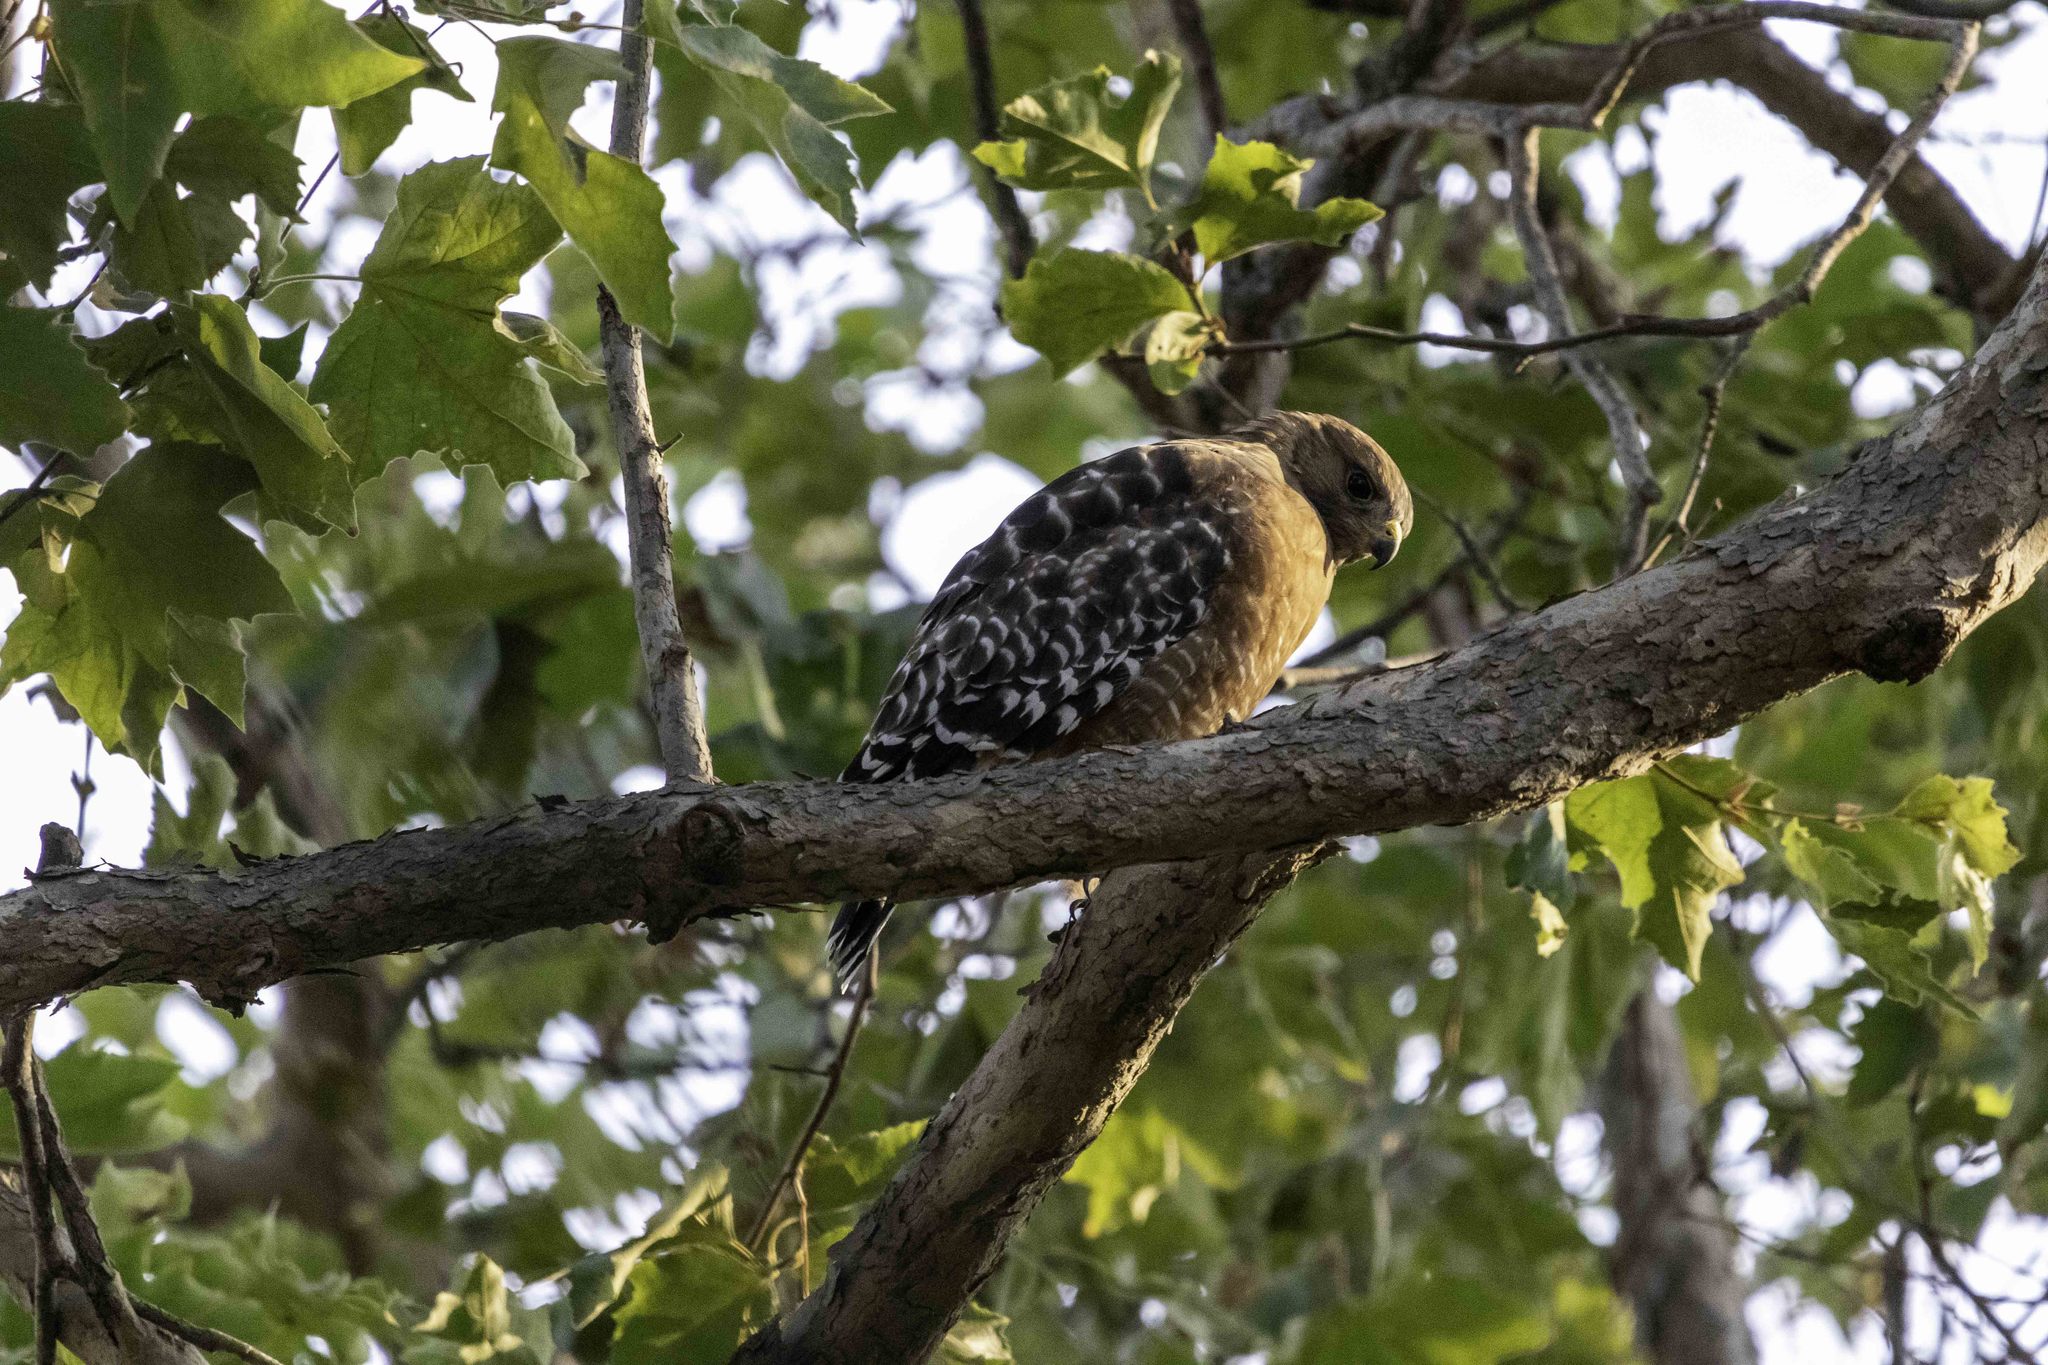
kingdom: Animalia
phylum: Chordata
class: Aves
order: Accipitriformes
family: Accipitridae
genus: Buteo
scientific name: Buteo lineatus
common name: Red-shouldered hawk
